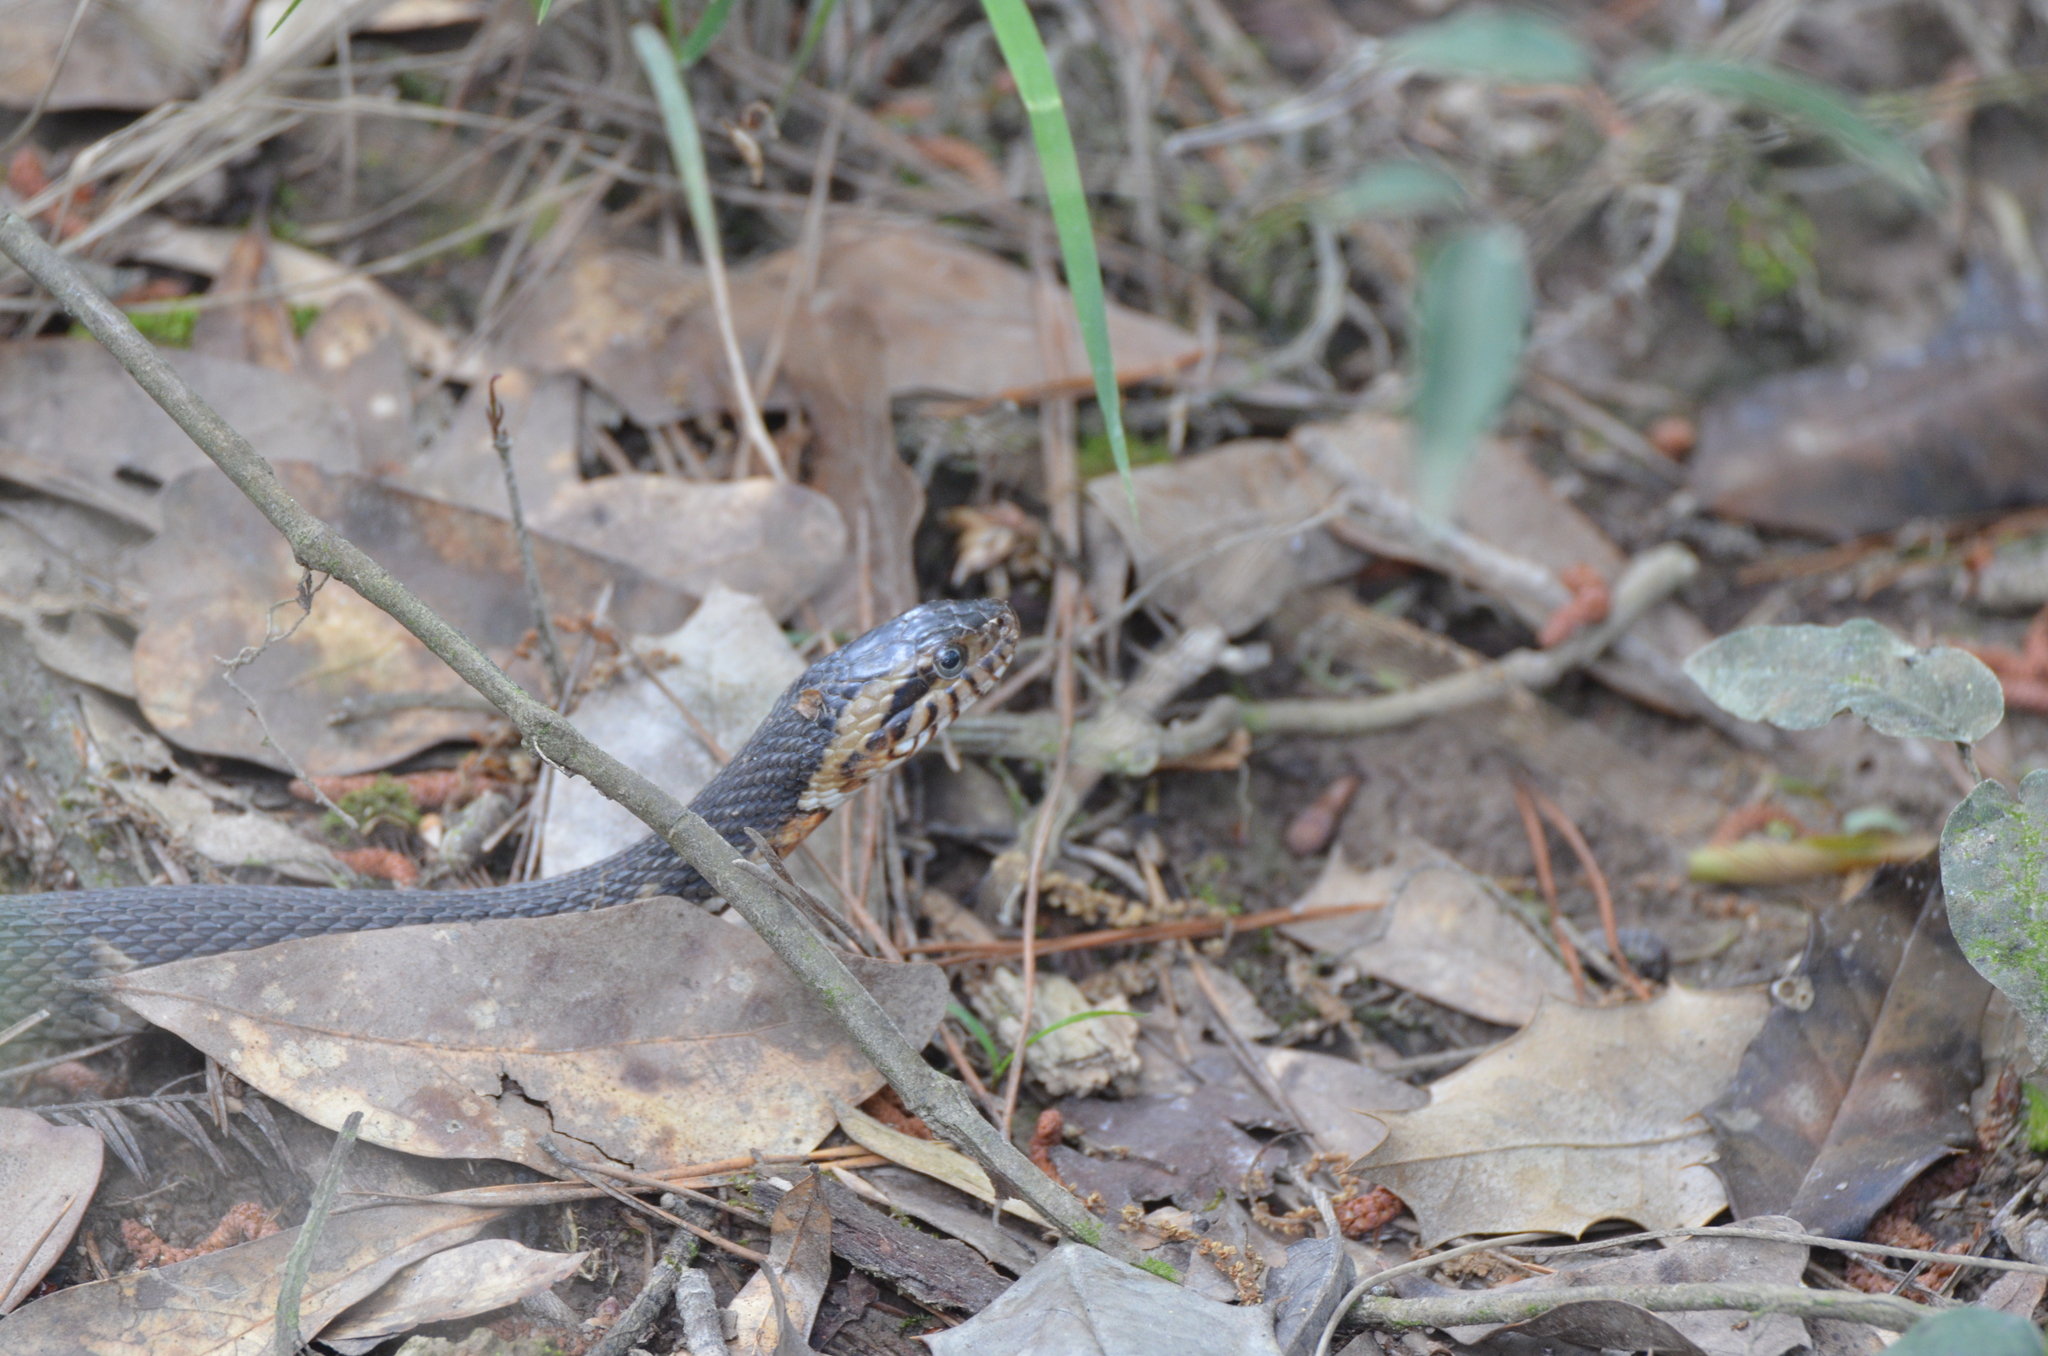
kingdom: Animalia
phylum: Chordata
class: Squamata
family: Colubridae
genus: Nerodia
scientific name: Nerodia fasciata
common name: Southern water snake
